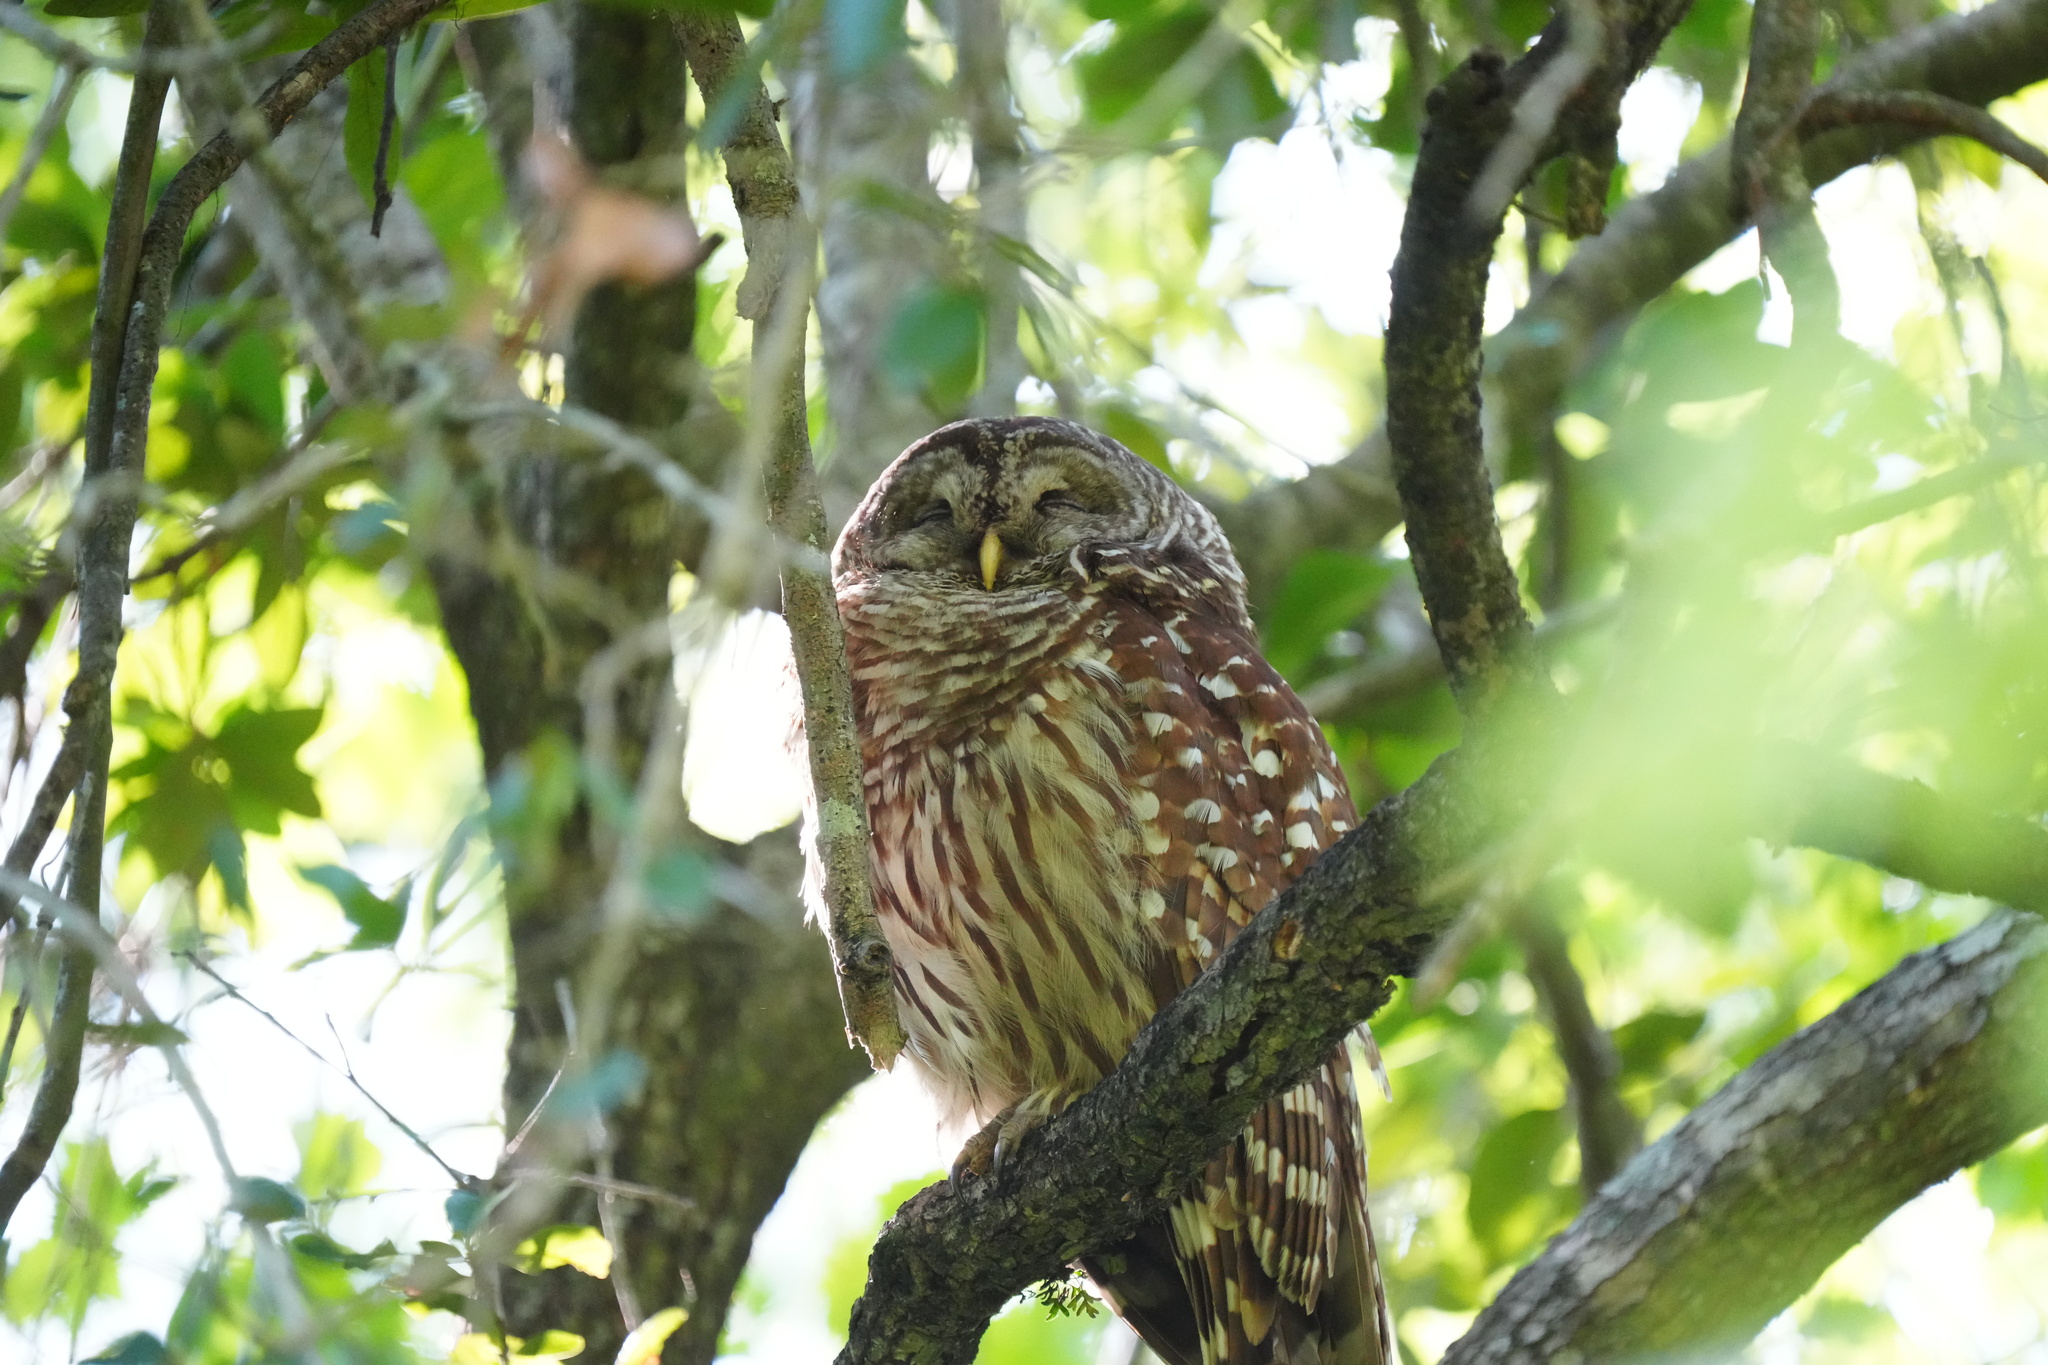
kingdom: Animalia
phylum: Chordata
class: Aves
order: Strigiformes
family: Strigidae
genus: Strix
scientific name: Strix varia
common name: Barred owl
